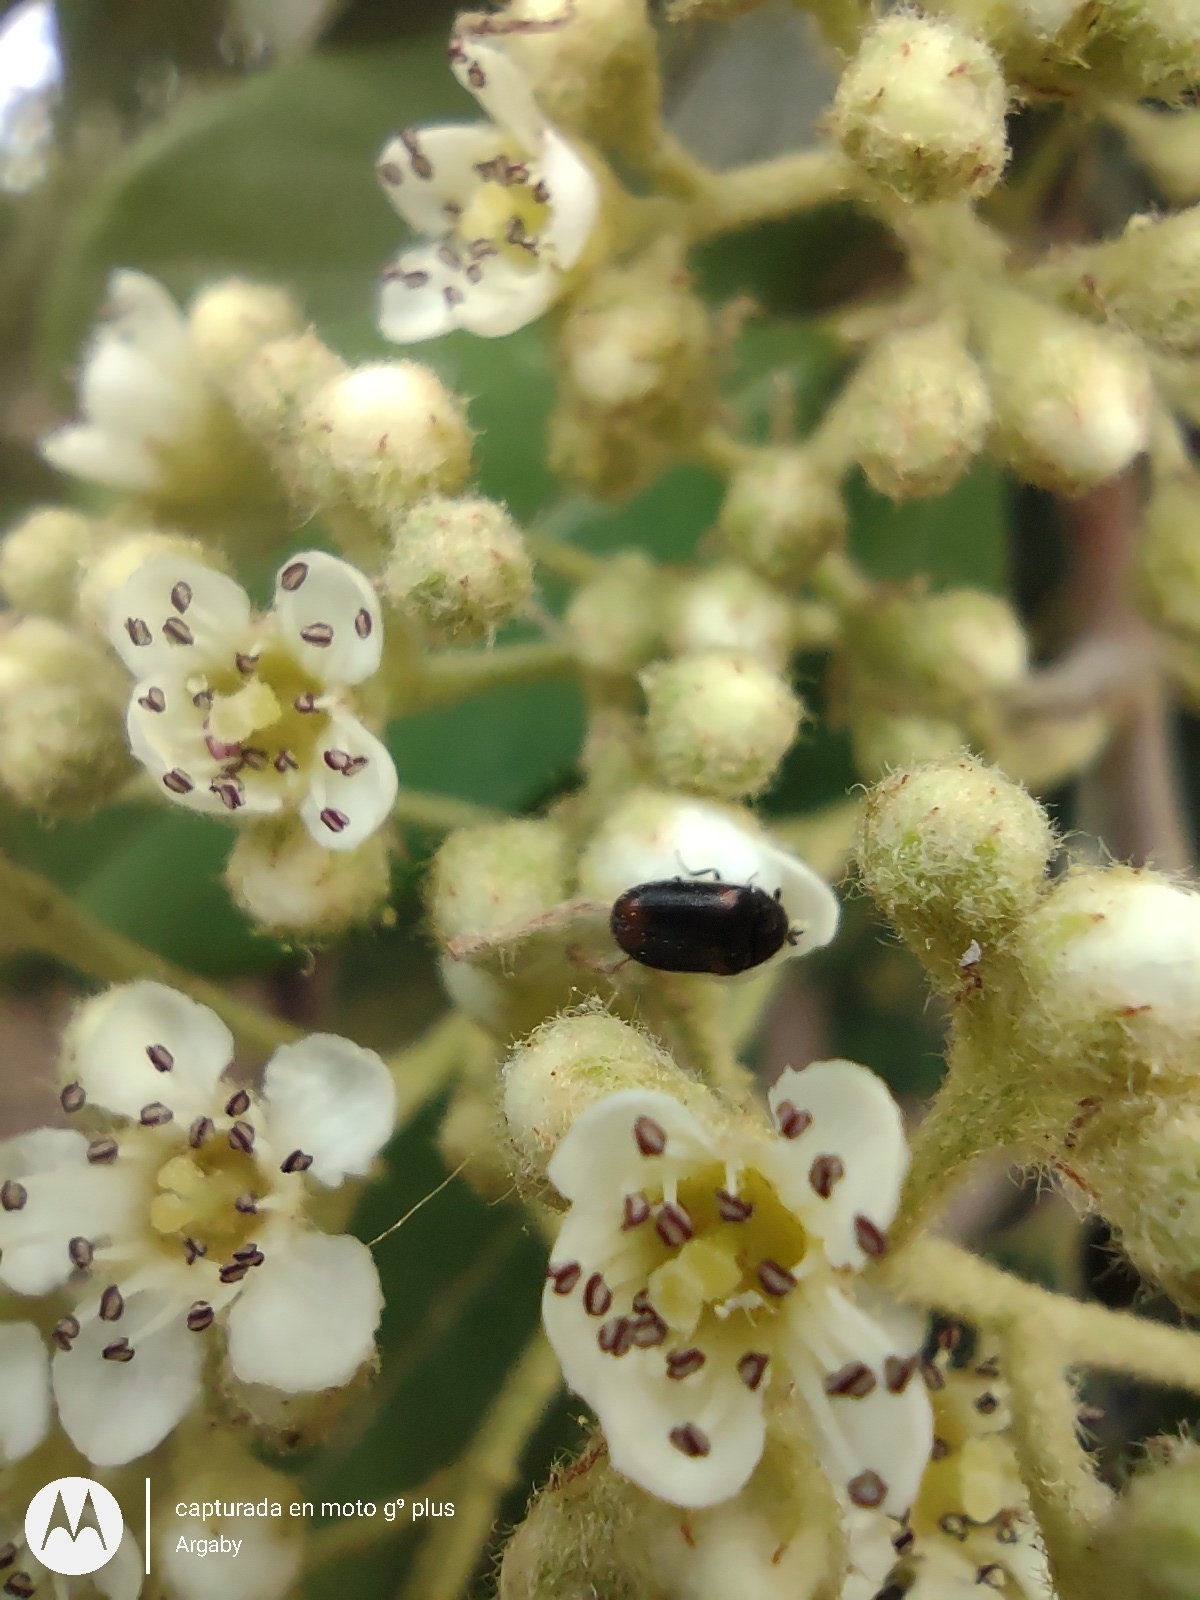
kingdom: Animalia
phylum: Arthropoda
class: Insecta
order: Coleoptera
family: Dermestidae
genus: Trogoderma
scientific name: Trogoderma
